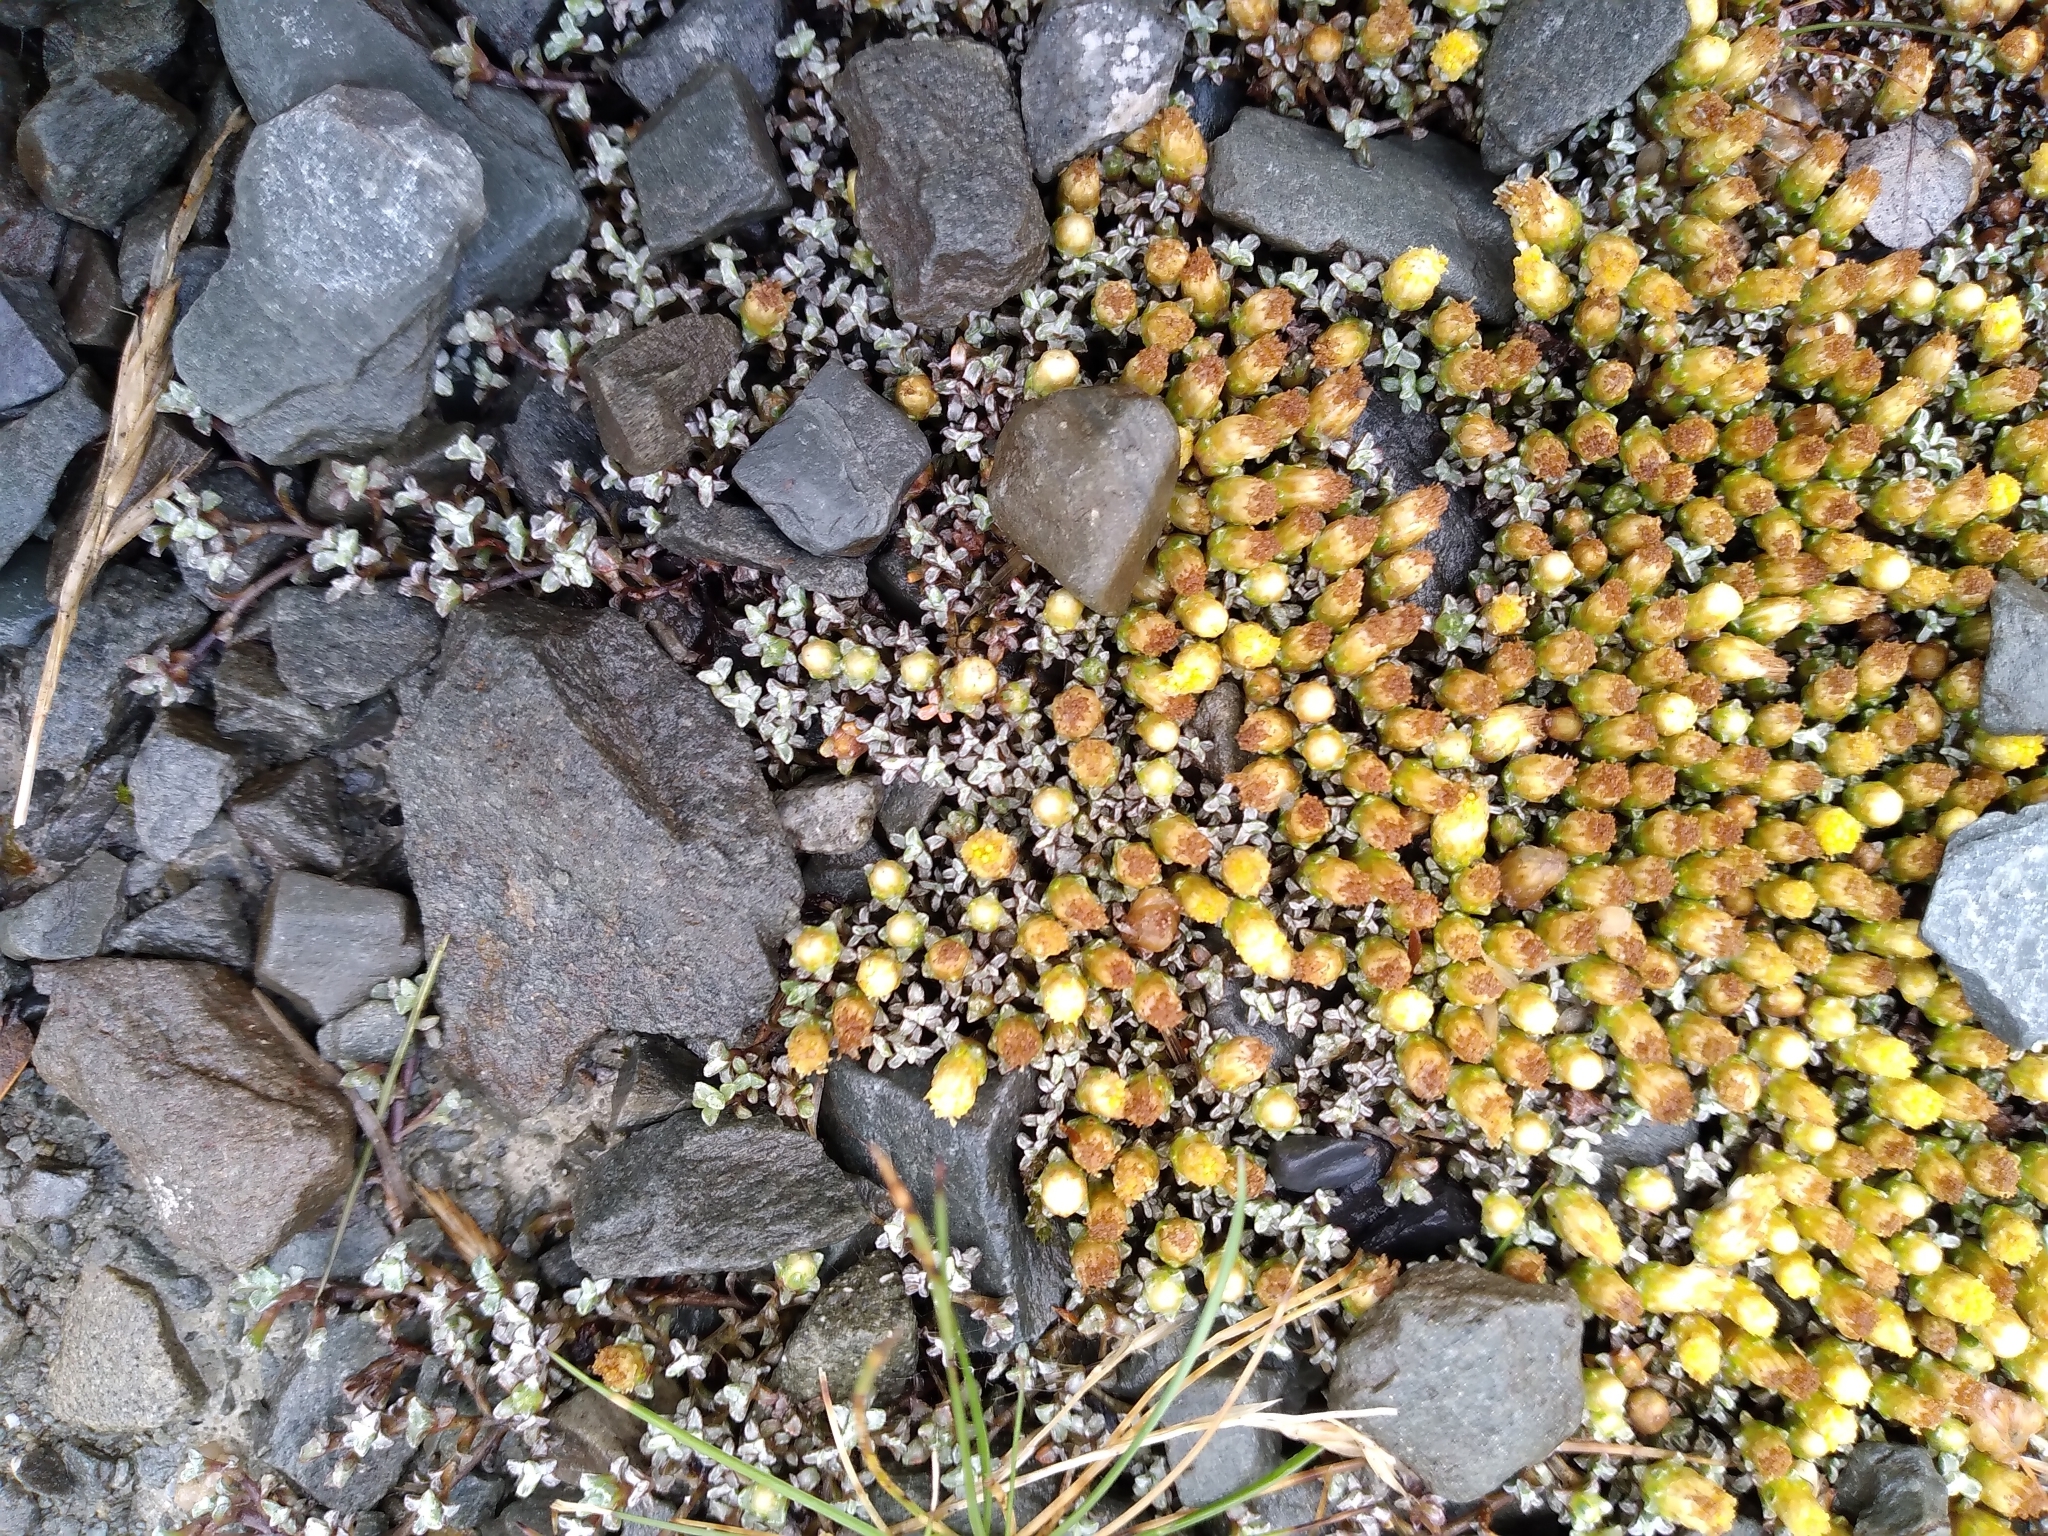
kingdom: Plantae
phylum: Tracheophyta
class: Magnoliopsida
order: Asterales
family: Asteraceae
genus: Raoulia
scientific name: Raoulia tenuicaulis
